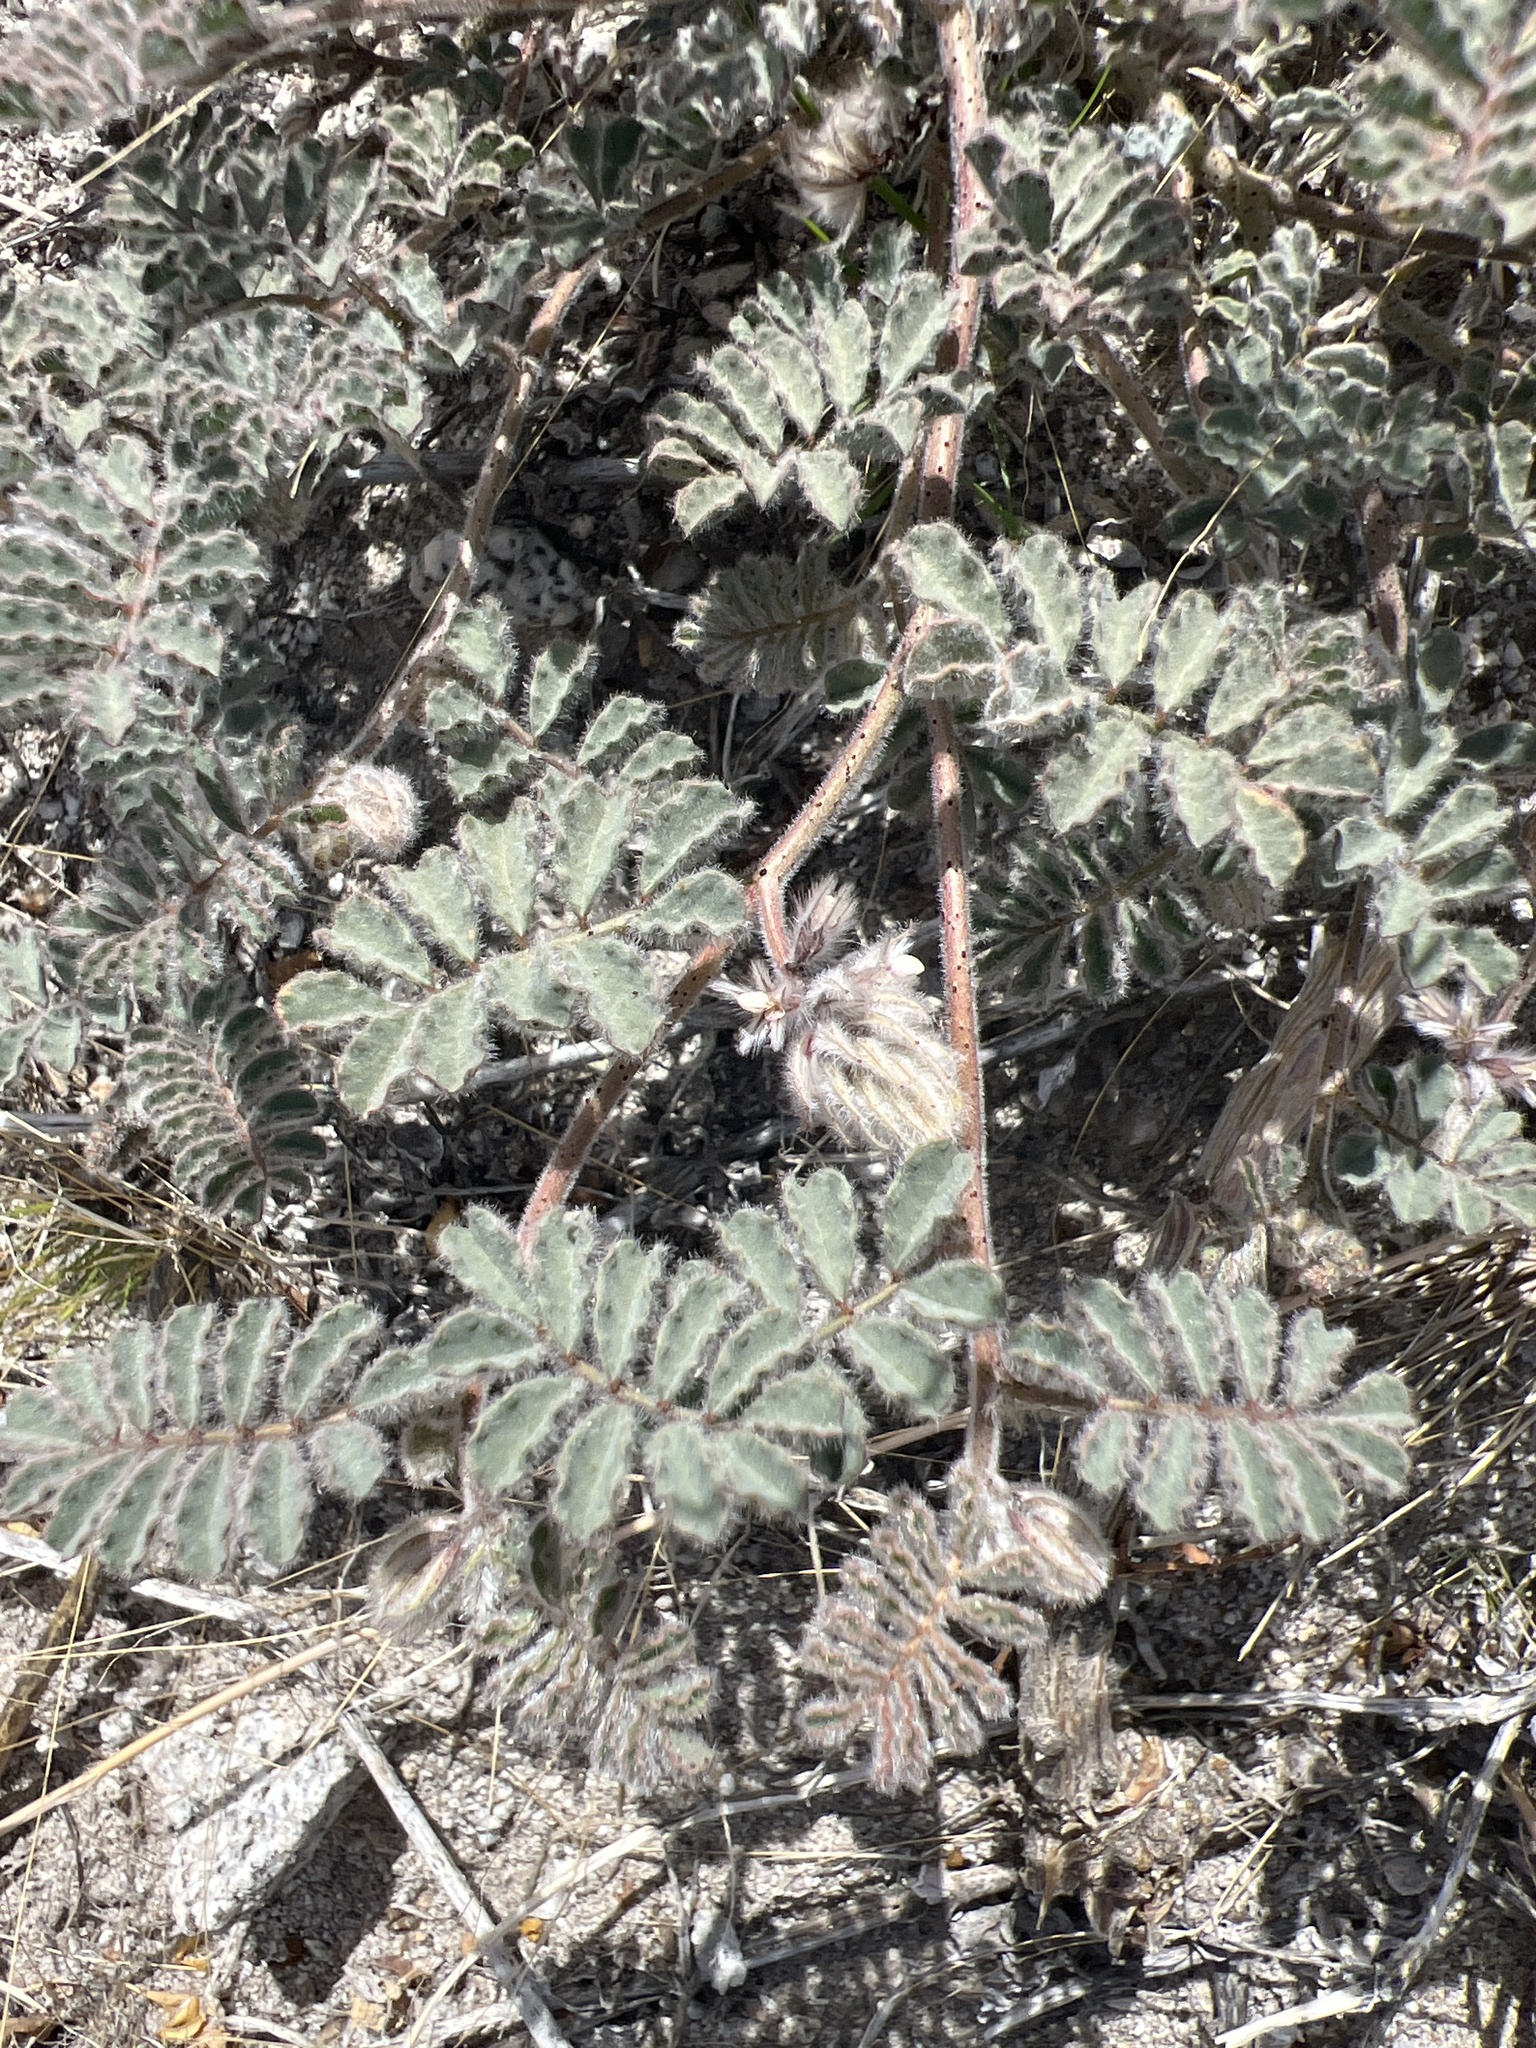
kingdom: Plantae
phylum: Tracheophyta
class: Magnoliopsida
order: Fabales
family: Fabaceae
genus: Dalea
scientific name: Dalea mollissima
